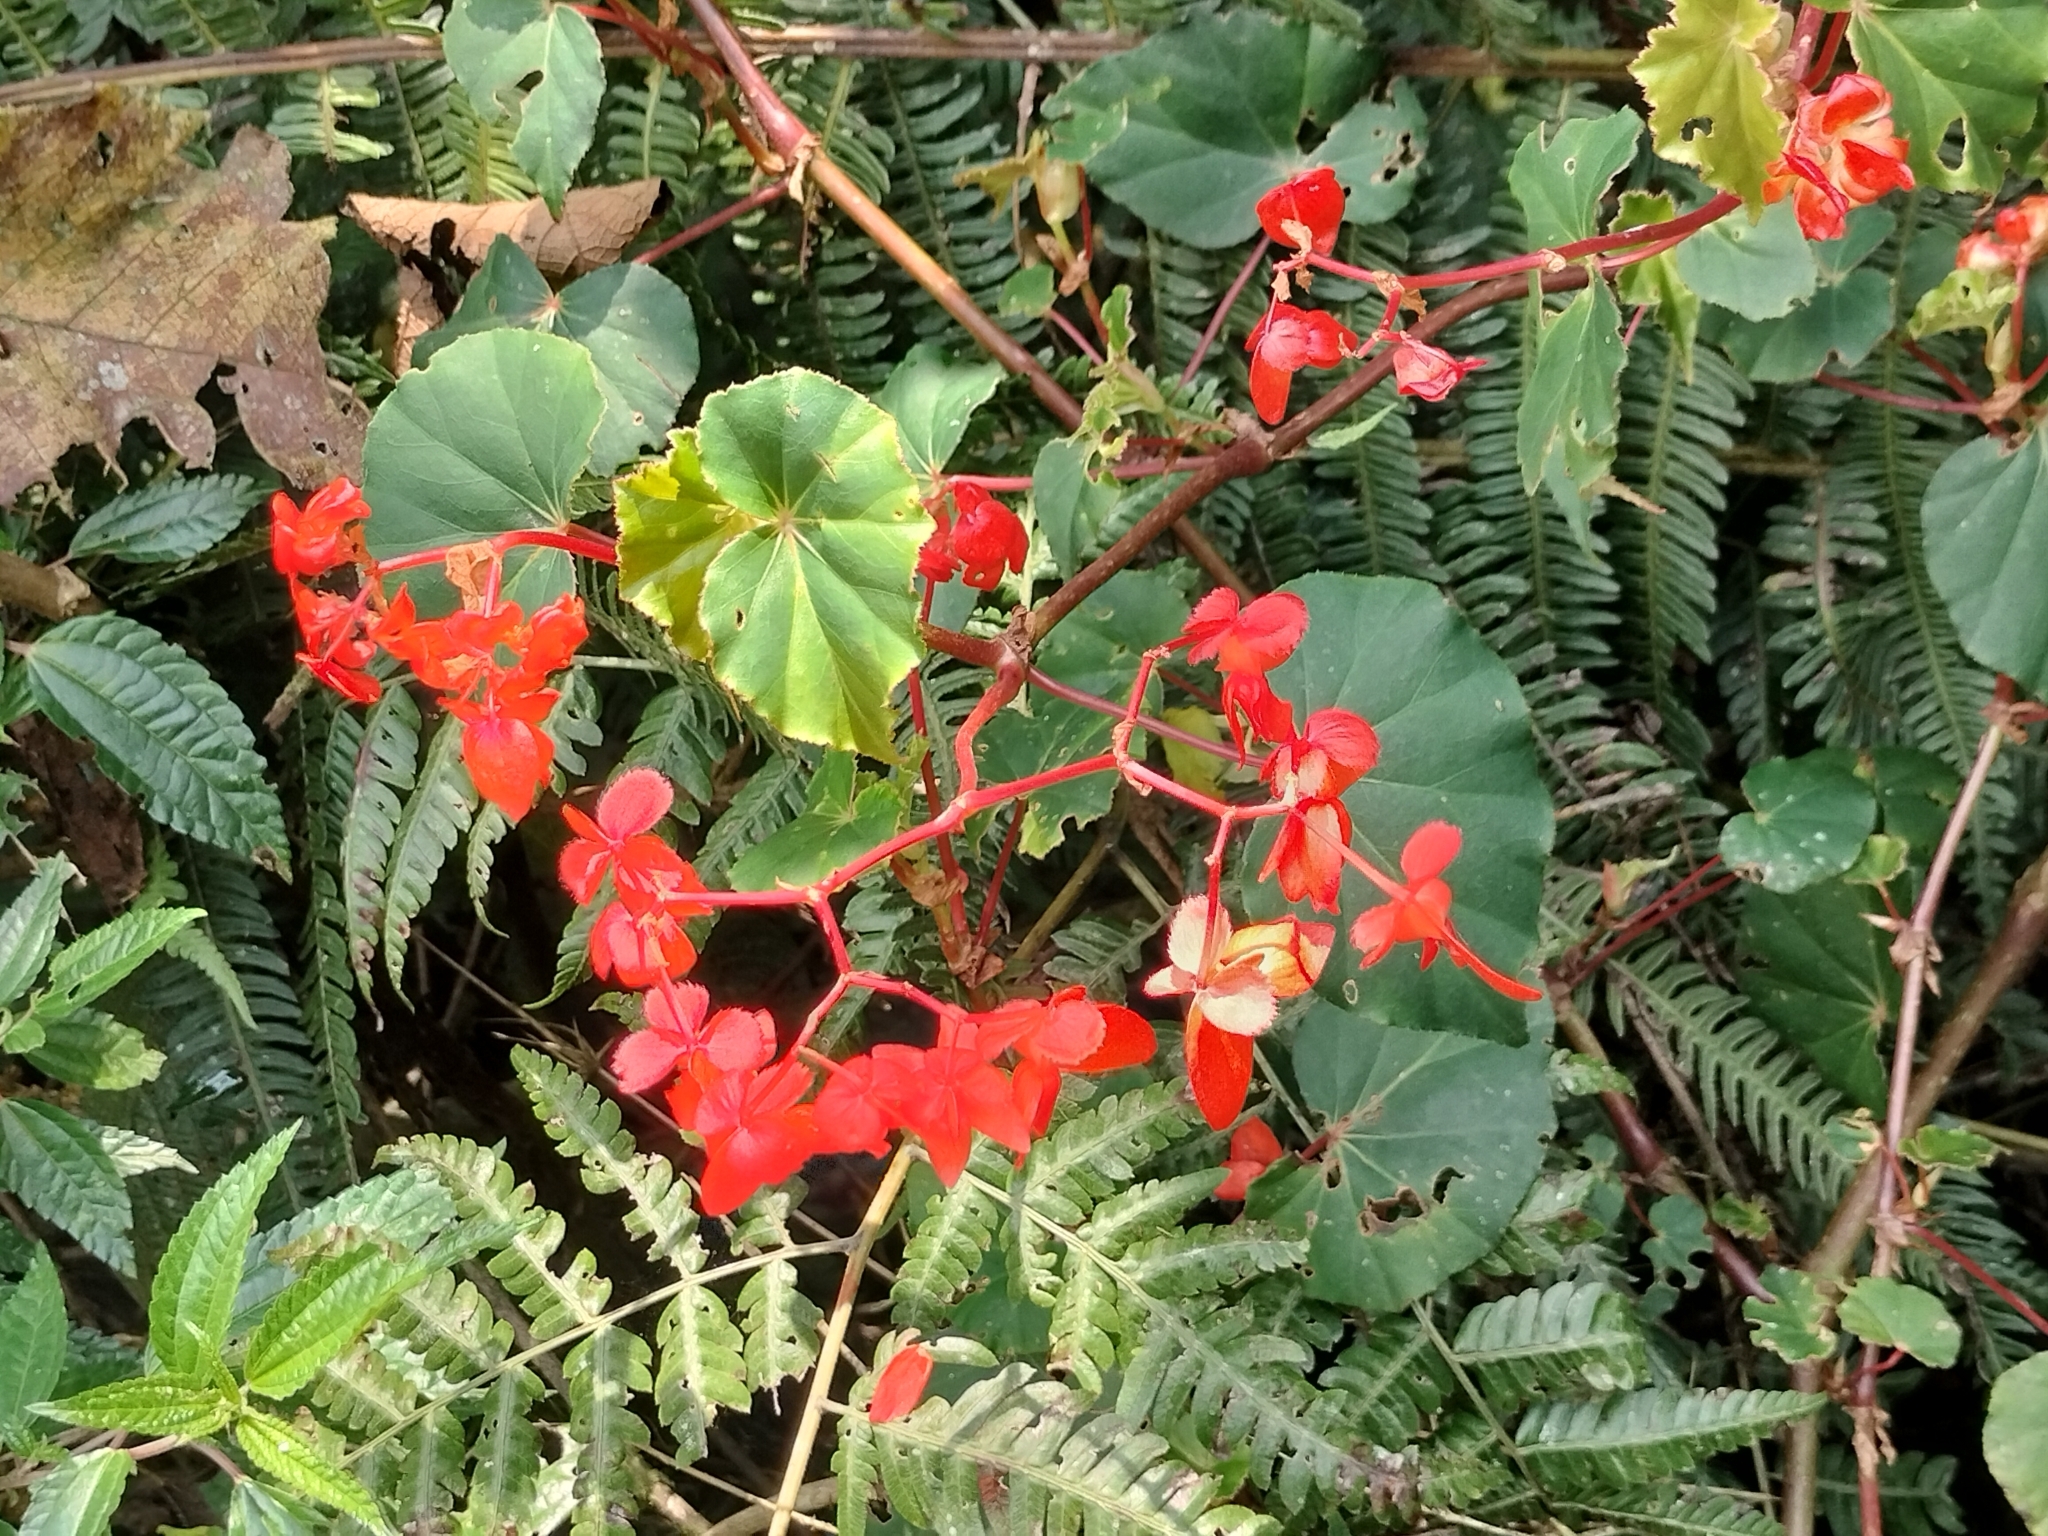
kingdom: Plantae
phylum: Tracheophyta
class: Magnoliopsida
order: Cucurbitales
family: Begoniaceae
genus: Begonia
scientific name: Begonia santarosensis
